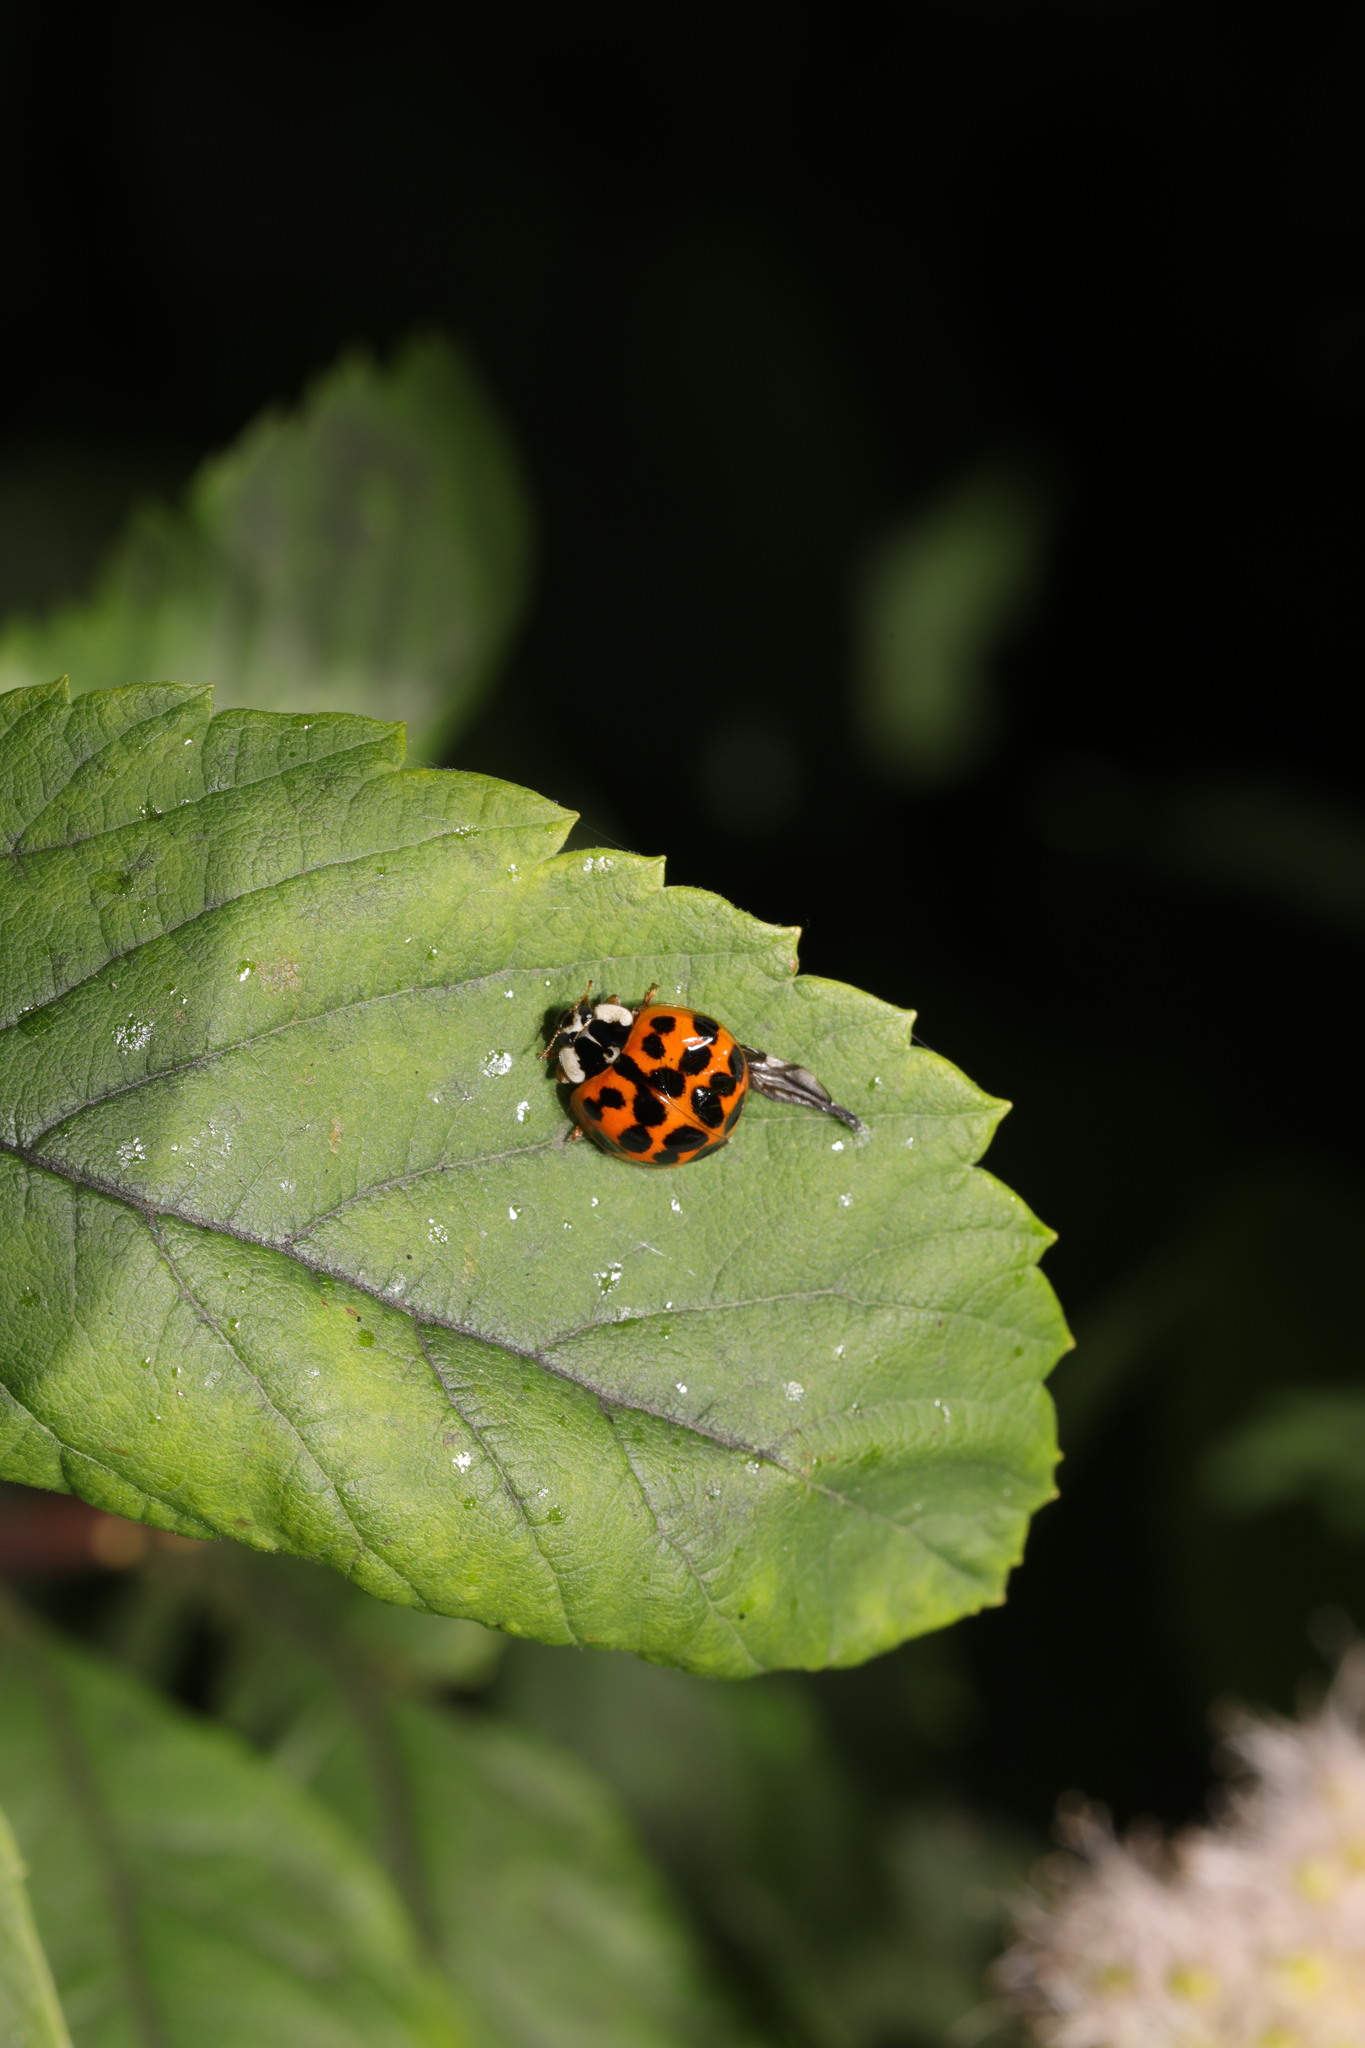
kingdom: Animalia
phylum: Arthropoda
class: Insecta
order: Coleoptera
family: Coccinellidae
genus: Harmonia
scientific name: Harmonia axyridis
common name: Harlequin ladybird
